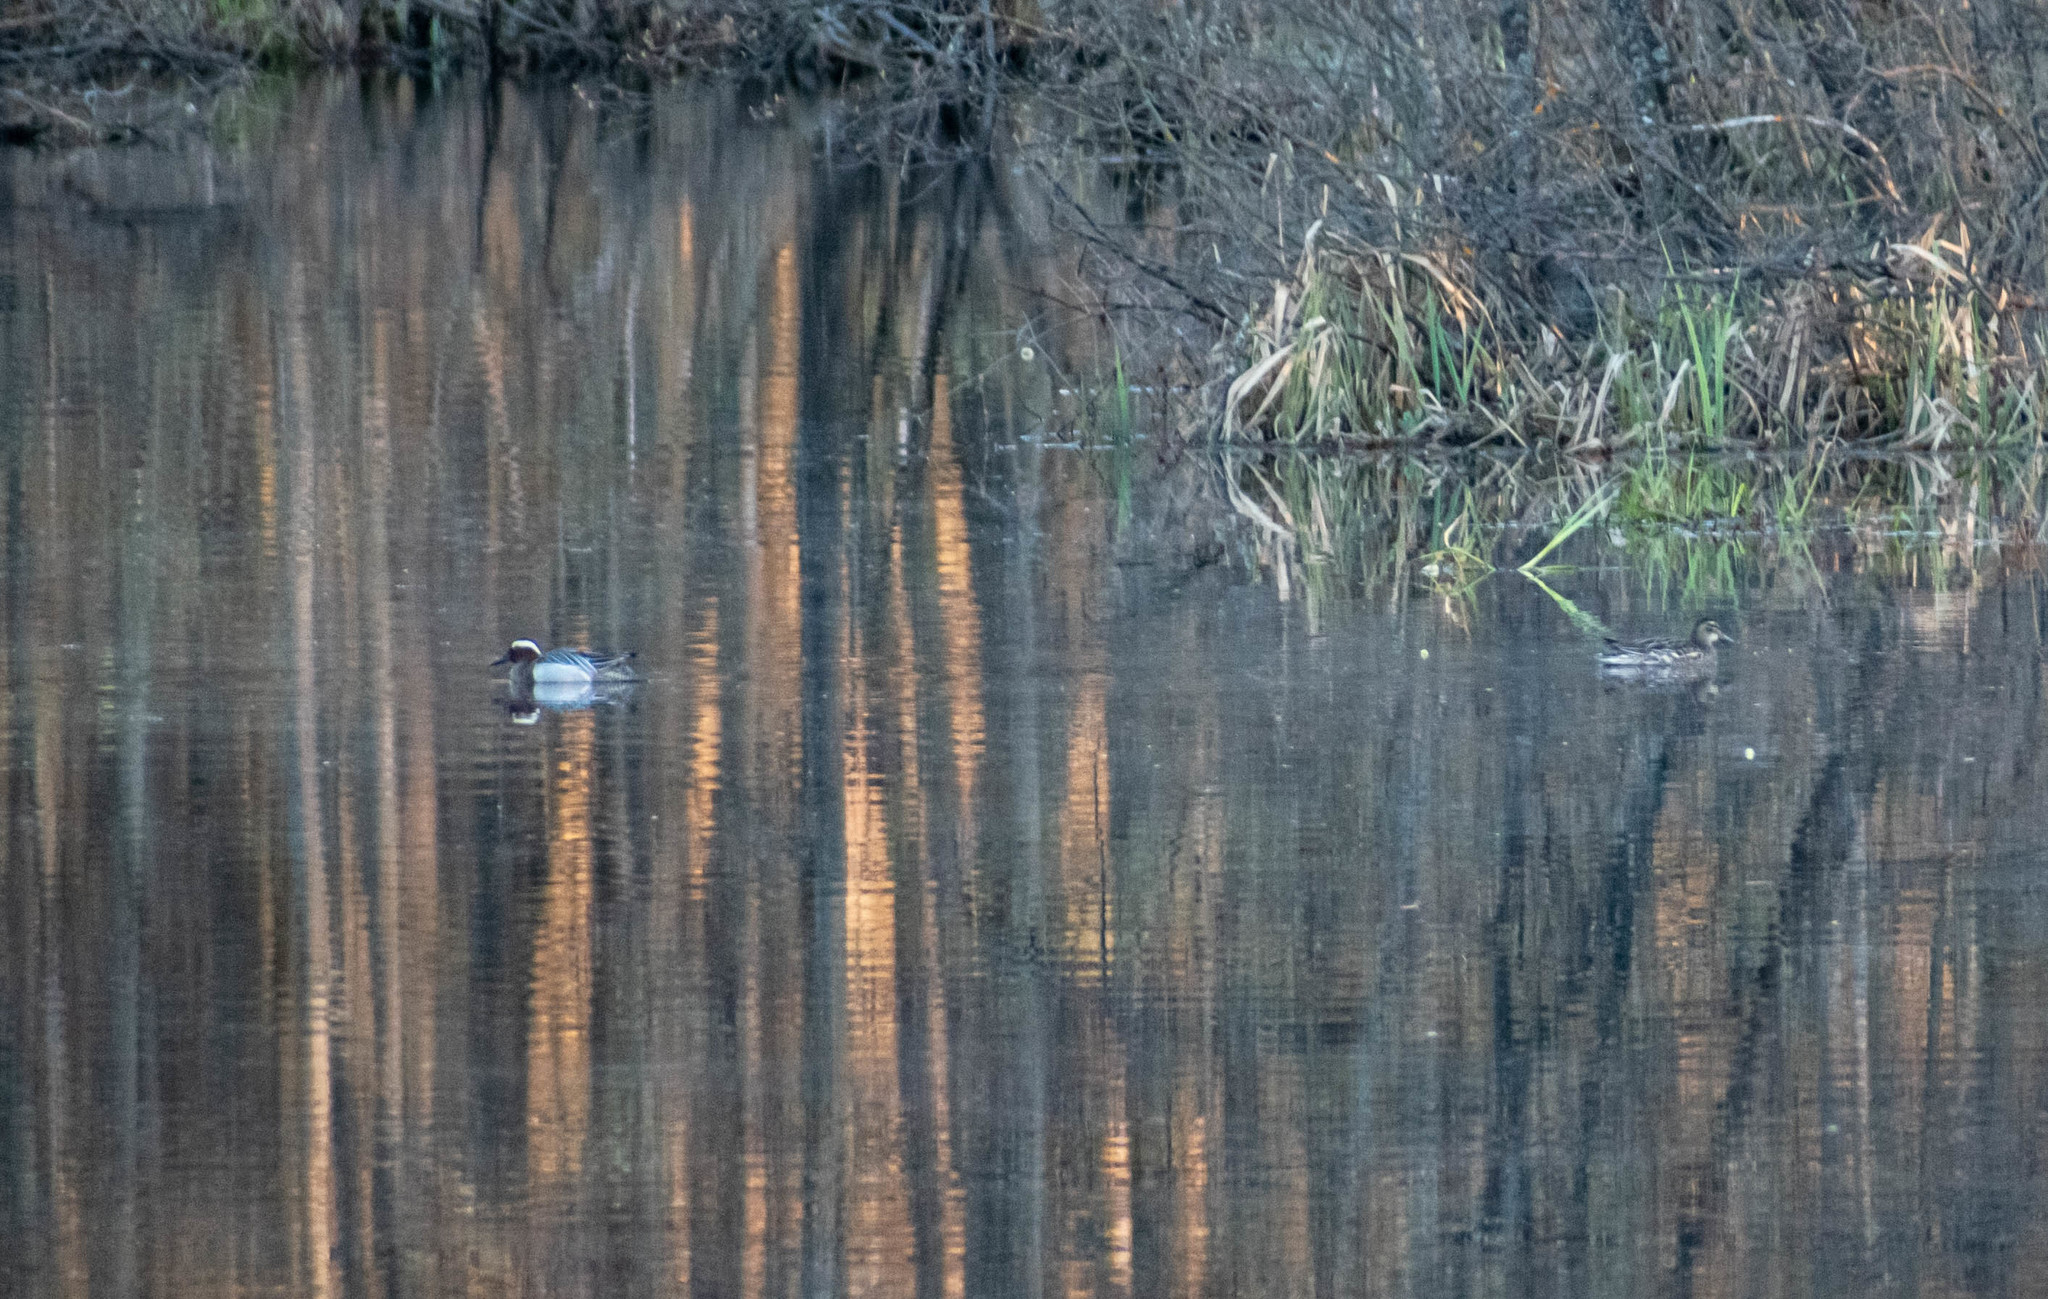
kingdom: Animalia
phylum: Chordata
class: Aves
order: Anseriformes
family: Anatidae
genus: Spatula
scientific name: Spatula querquedula
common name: Garganey
